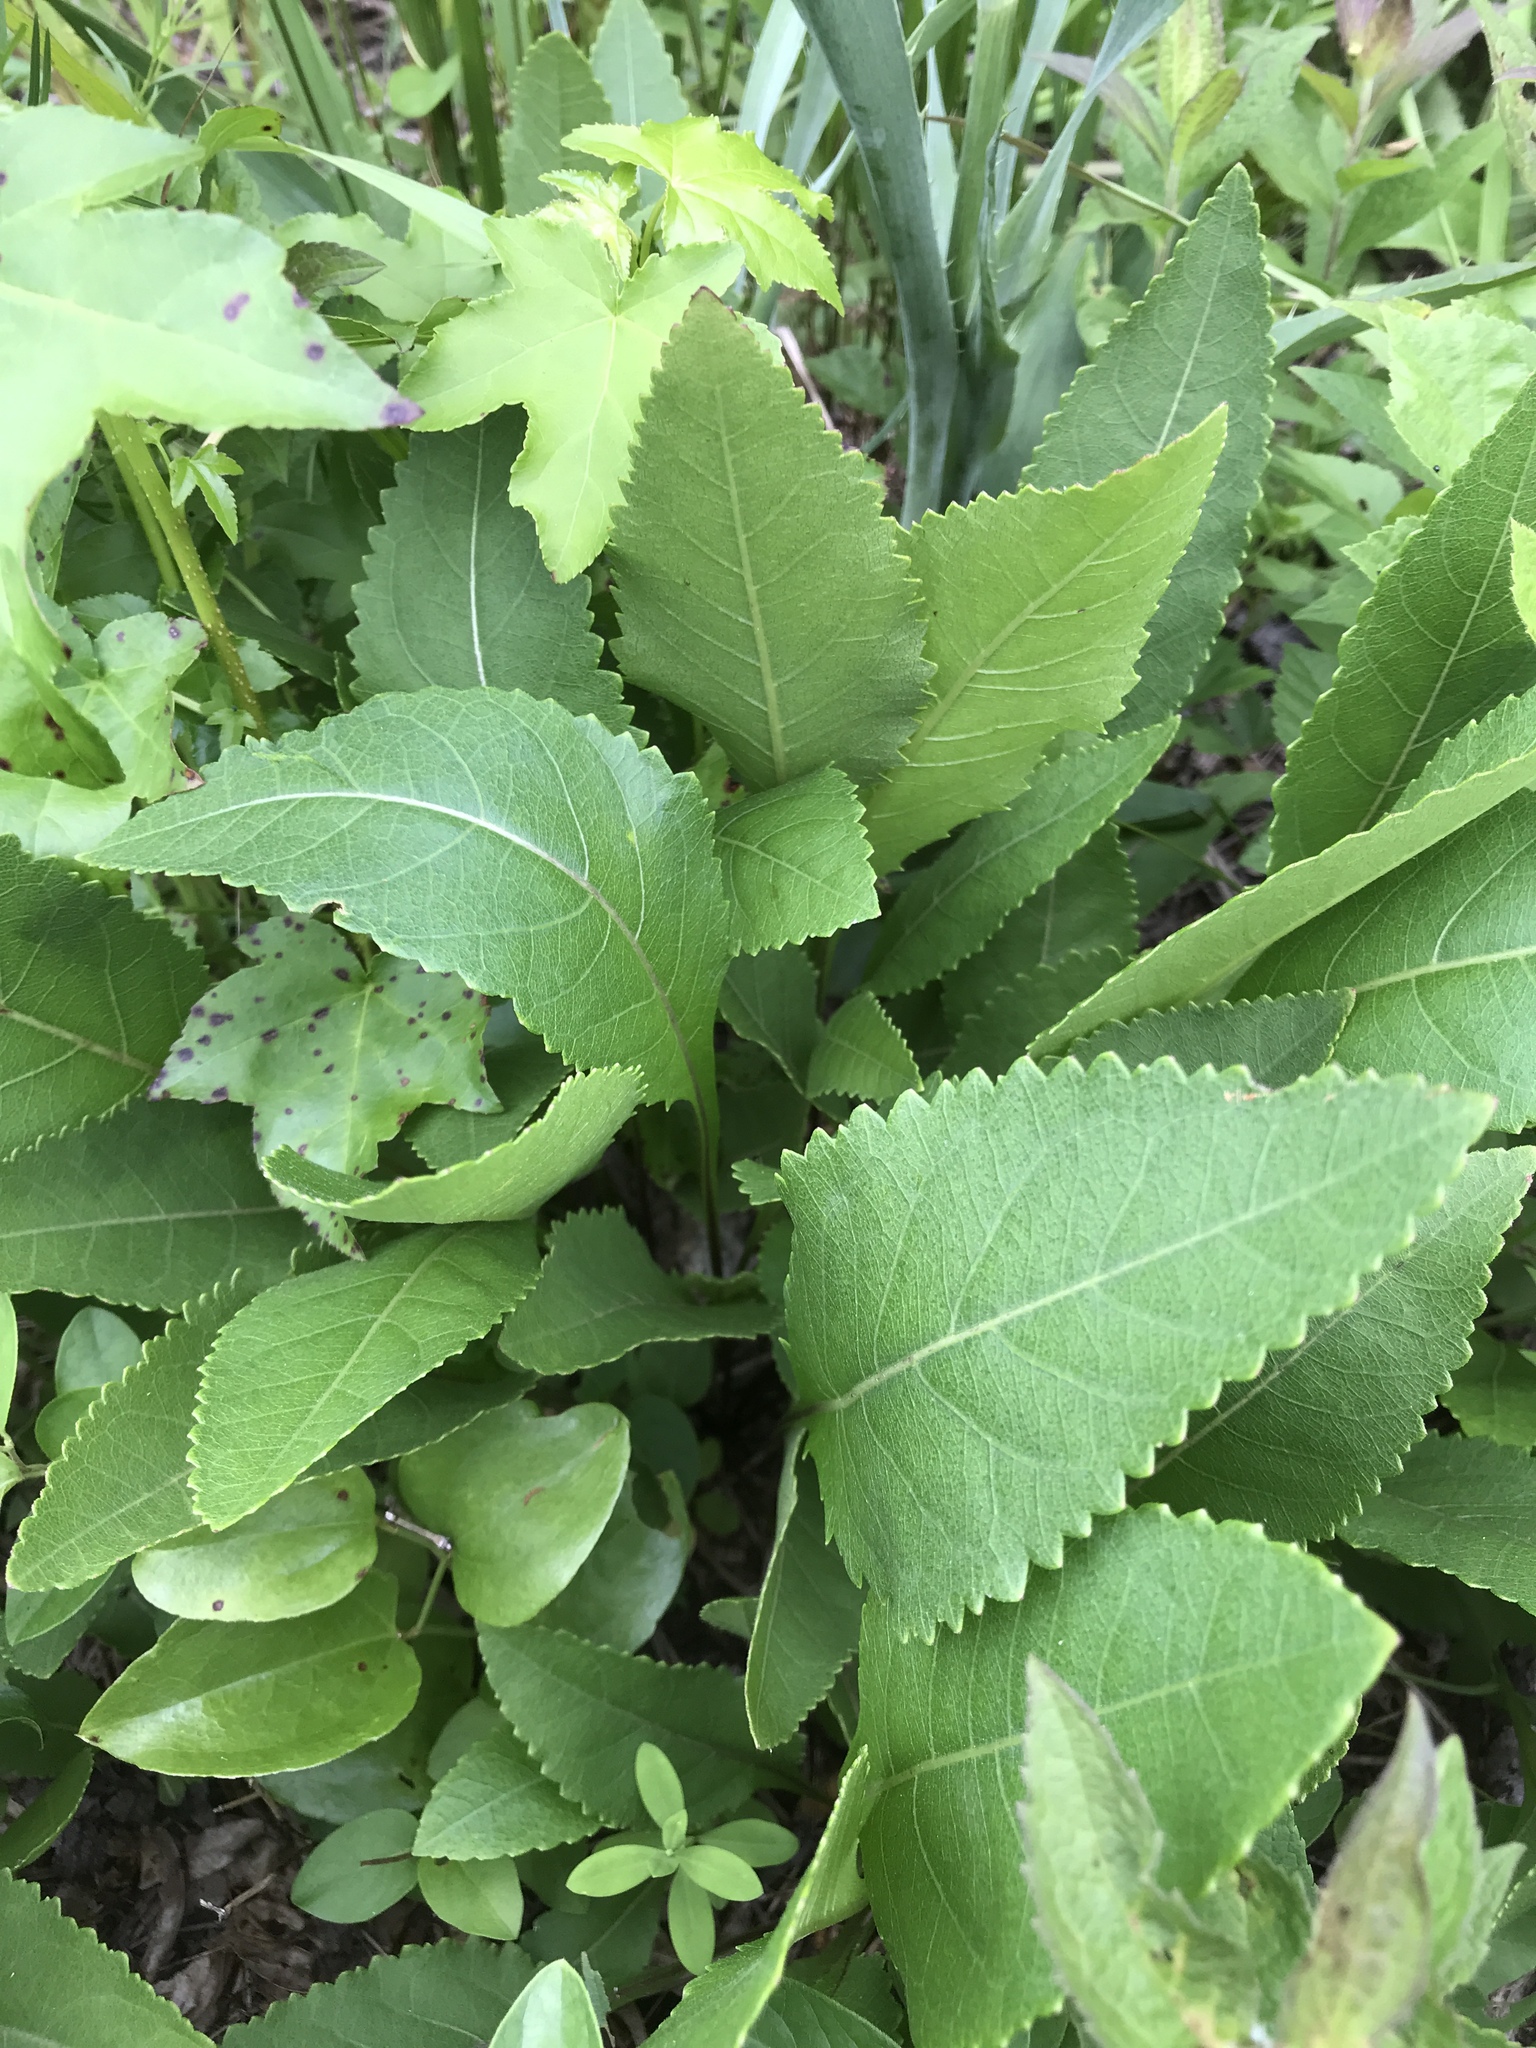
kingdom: Plantae
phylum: Tracheophyta
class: Magnoliopsida
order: Asterales
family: Asteraceae
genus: Parthenium
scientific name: Parthenium integrifolium
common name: American feverfew
